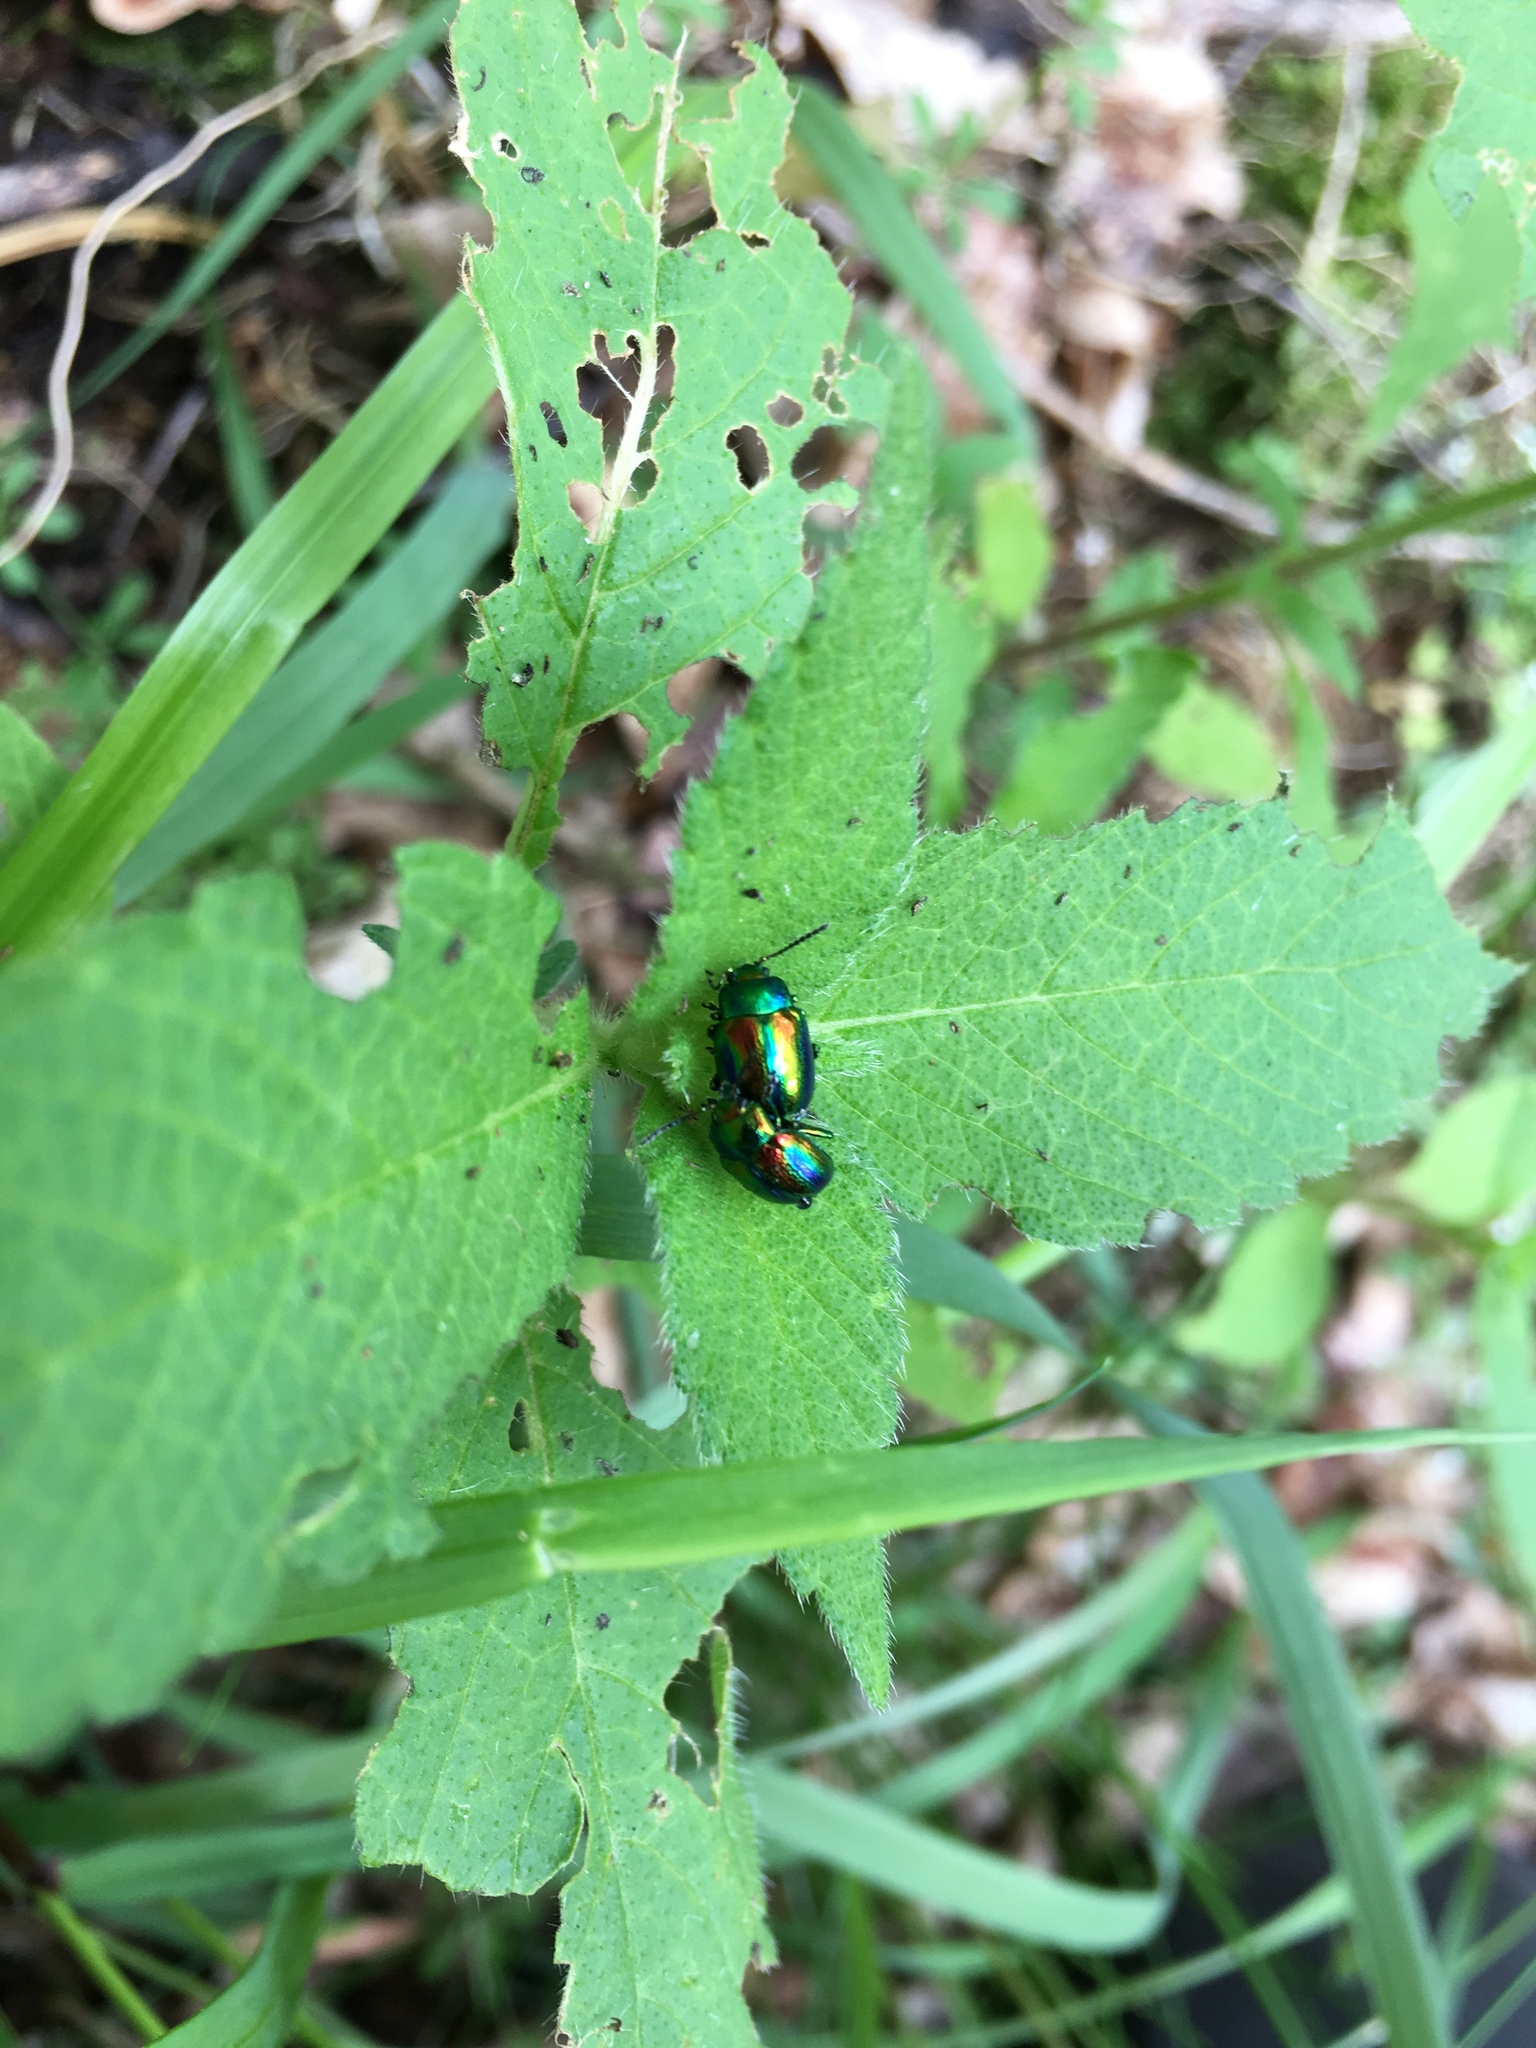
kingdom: Animalia
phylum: Arthropoda
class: Insecta
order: Coleoptera
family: Chrysomelidae
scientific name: Chrysomelidae
